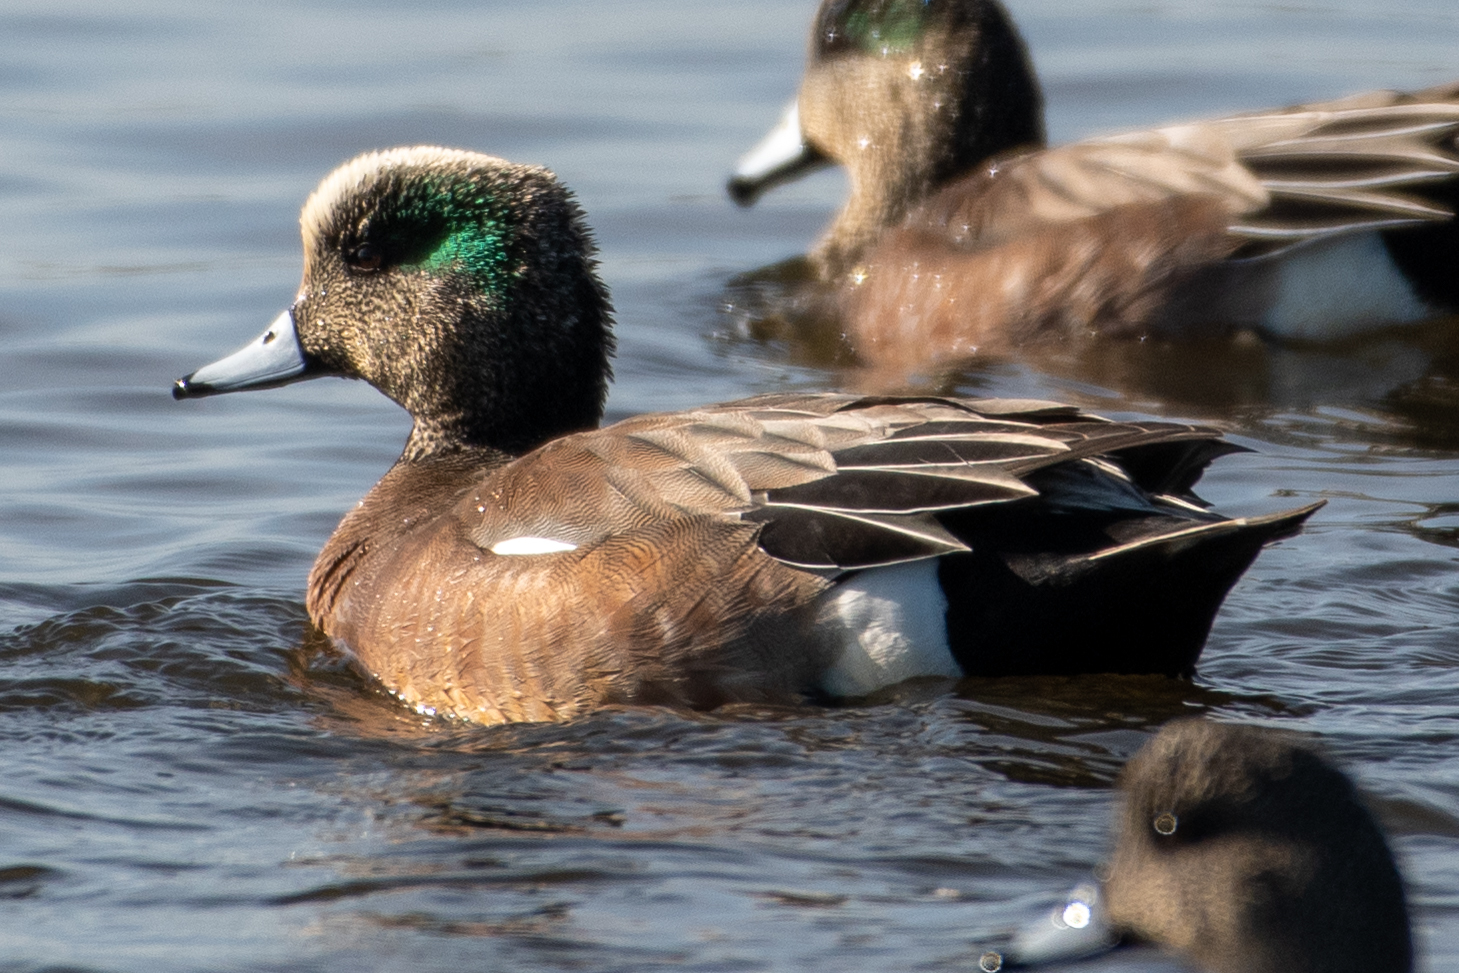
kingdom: Animalia
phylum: Chordata
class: Aves
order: Anseriformes
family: Anatidae
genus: Mareca
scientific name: Mareca americana
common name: American wigeon
